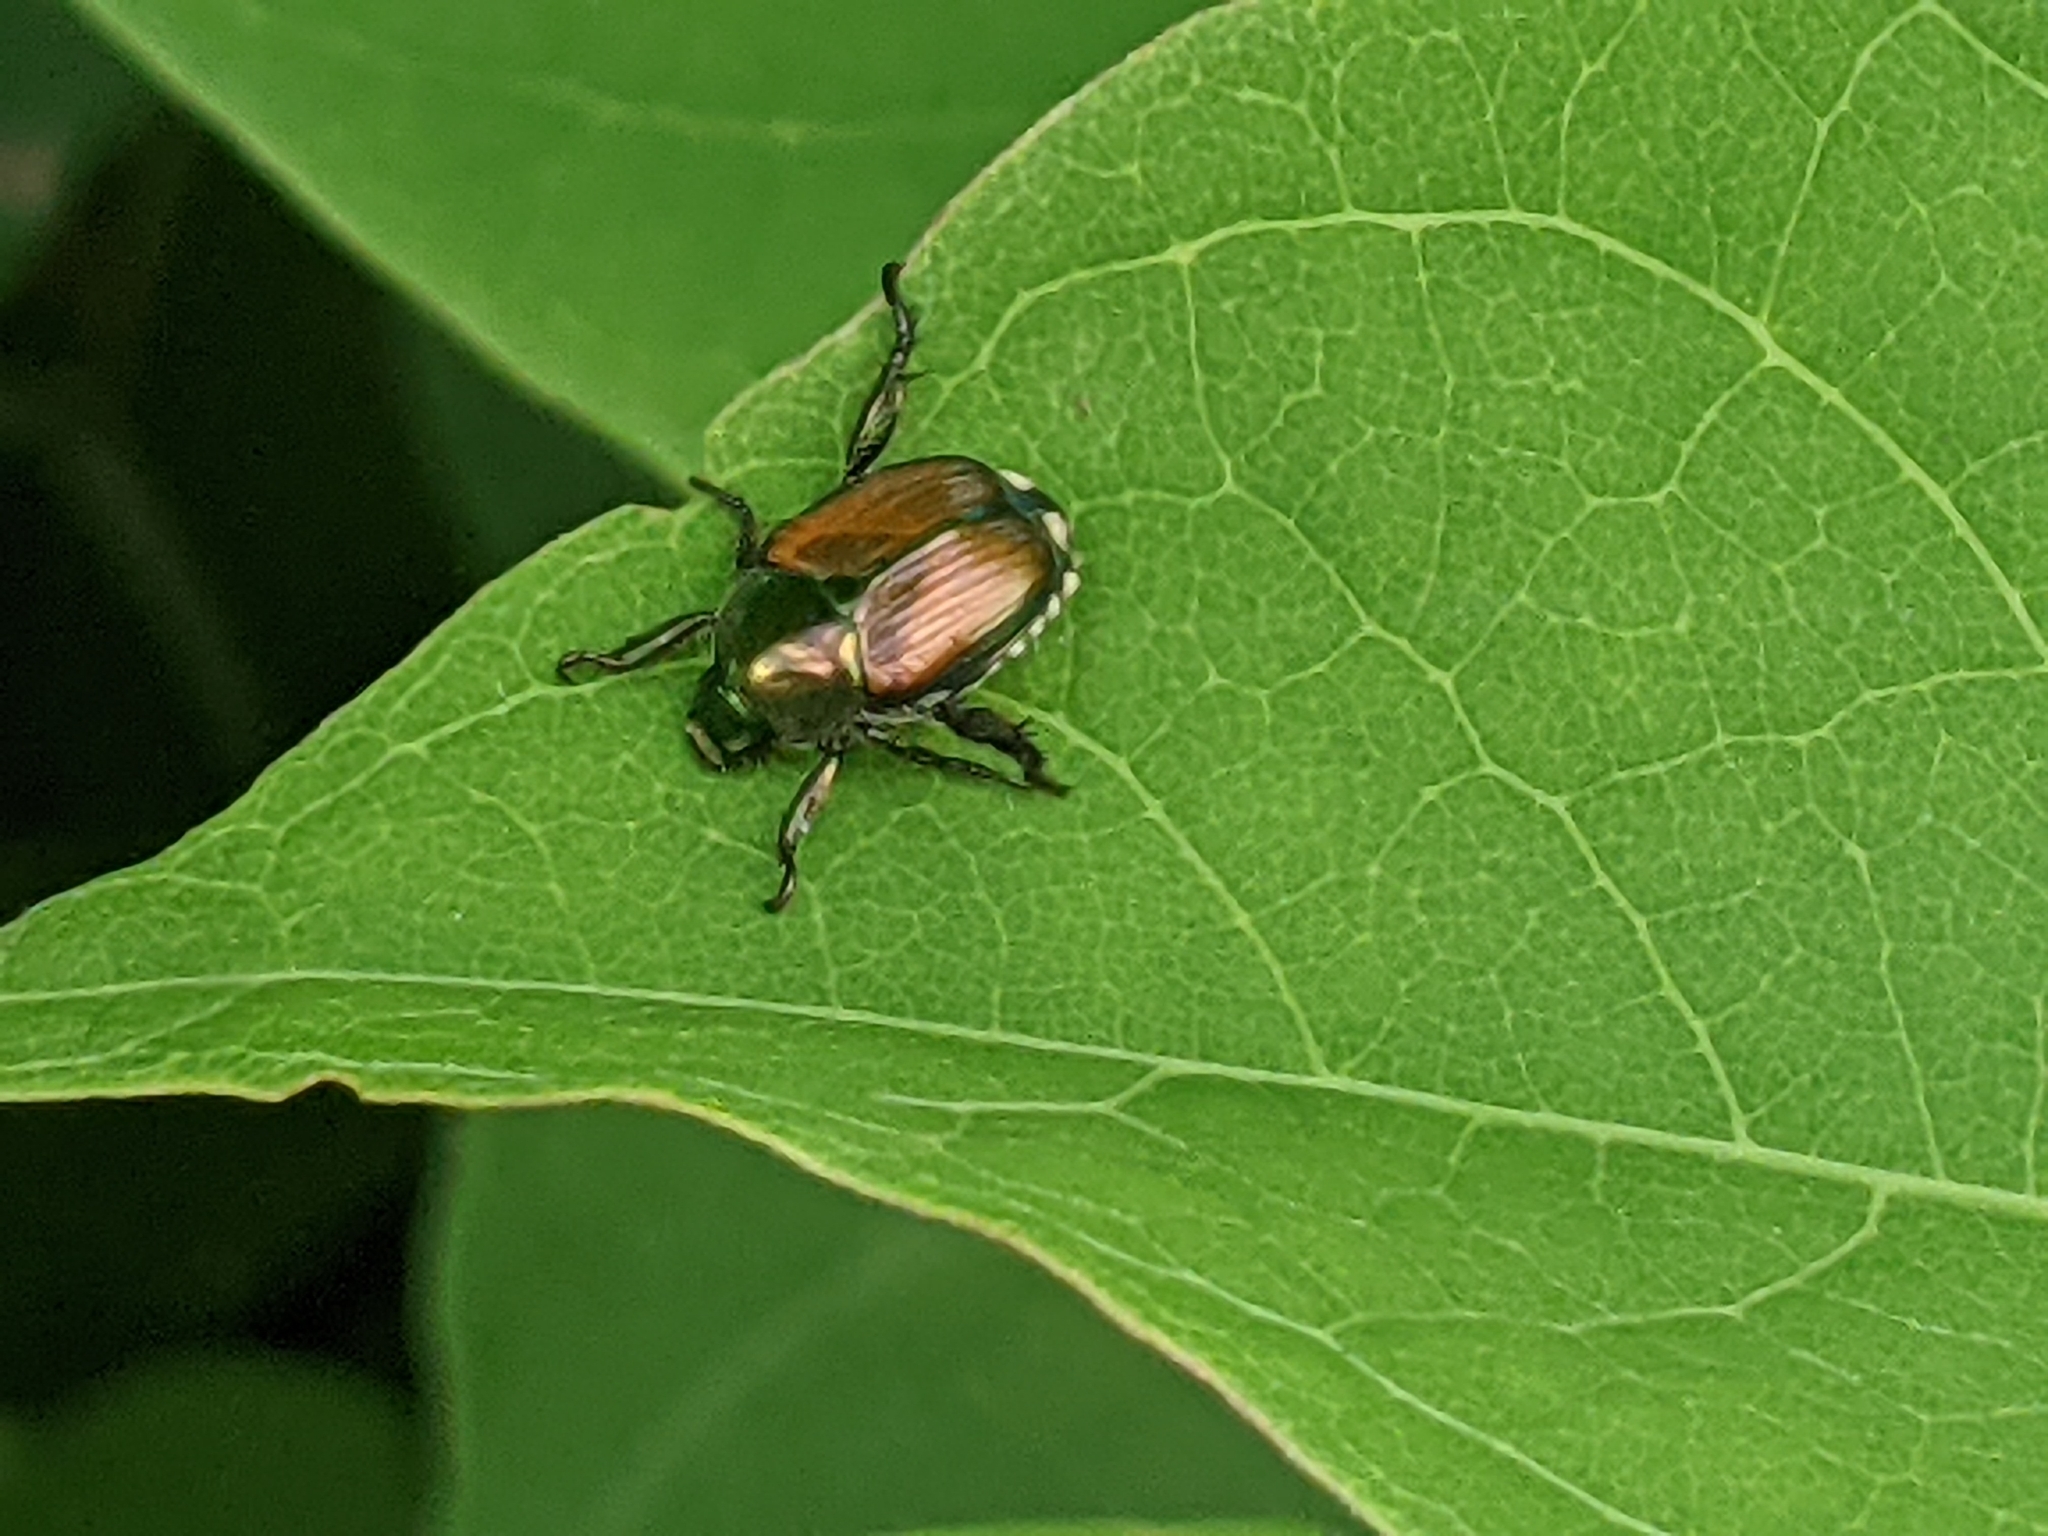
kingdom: Animalia
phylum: Arthropoda
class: Insecta
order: Coleoptera
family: Scarabaeidae
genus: Popillia
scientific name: Popillia japonica
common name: Japanese beetle
